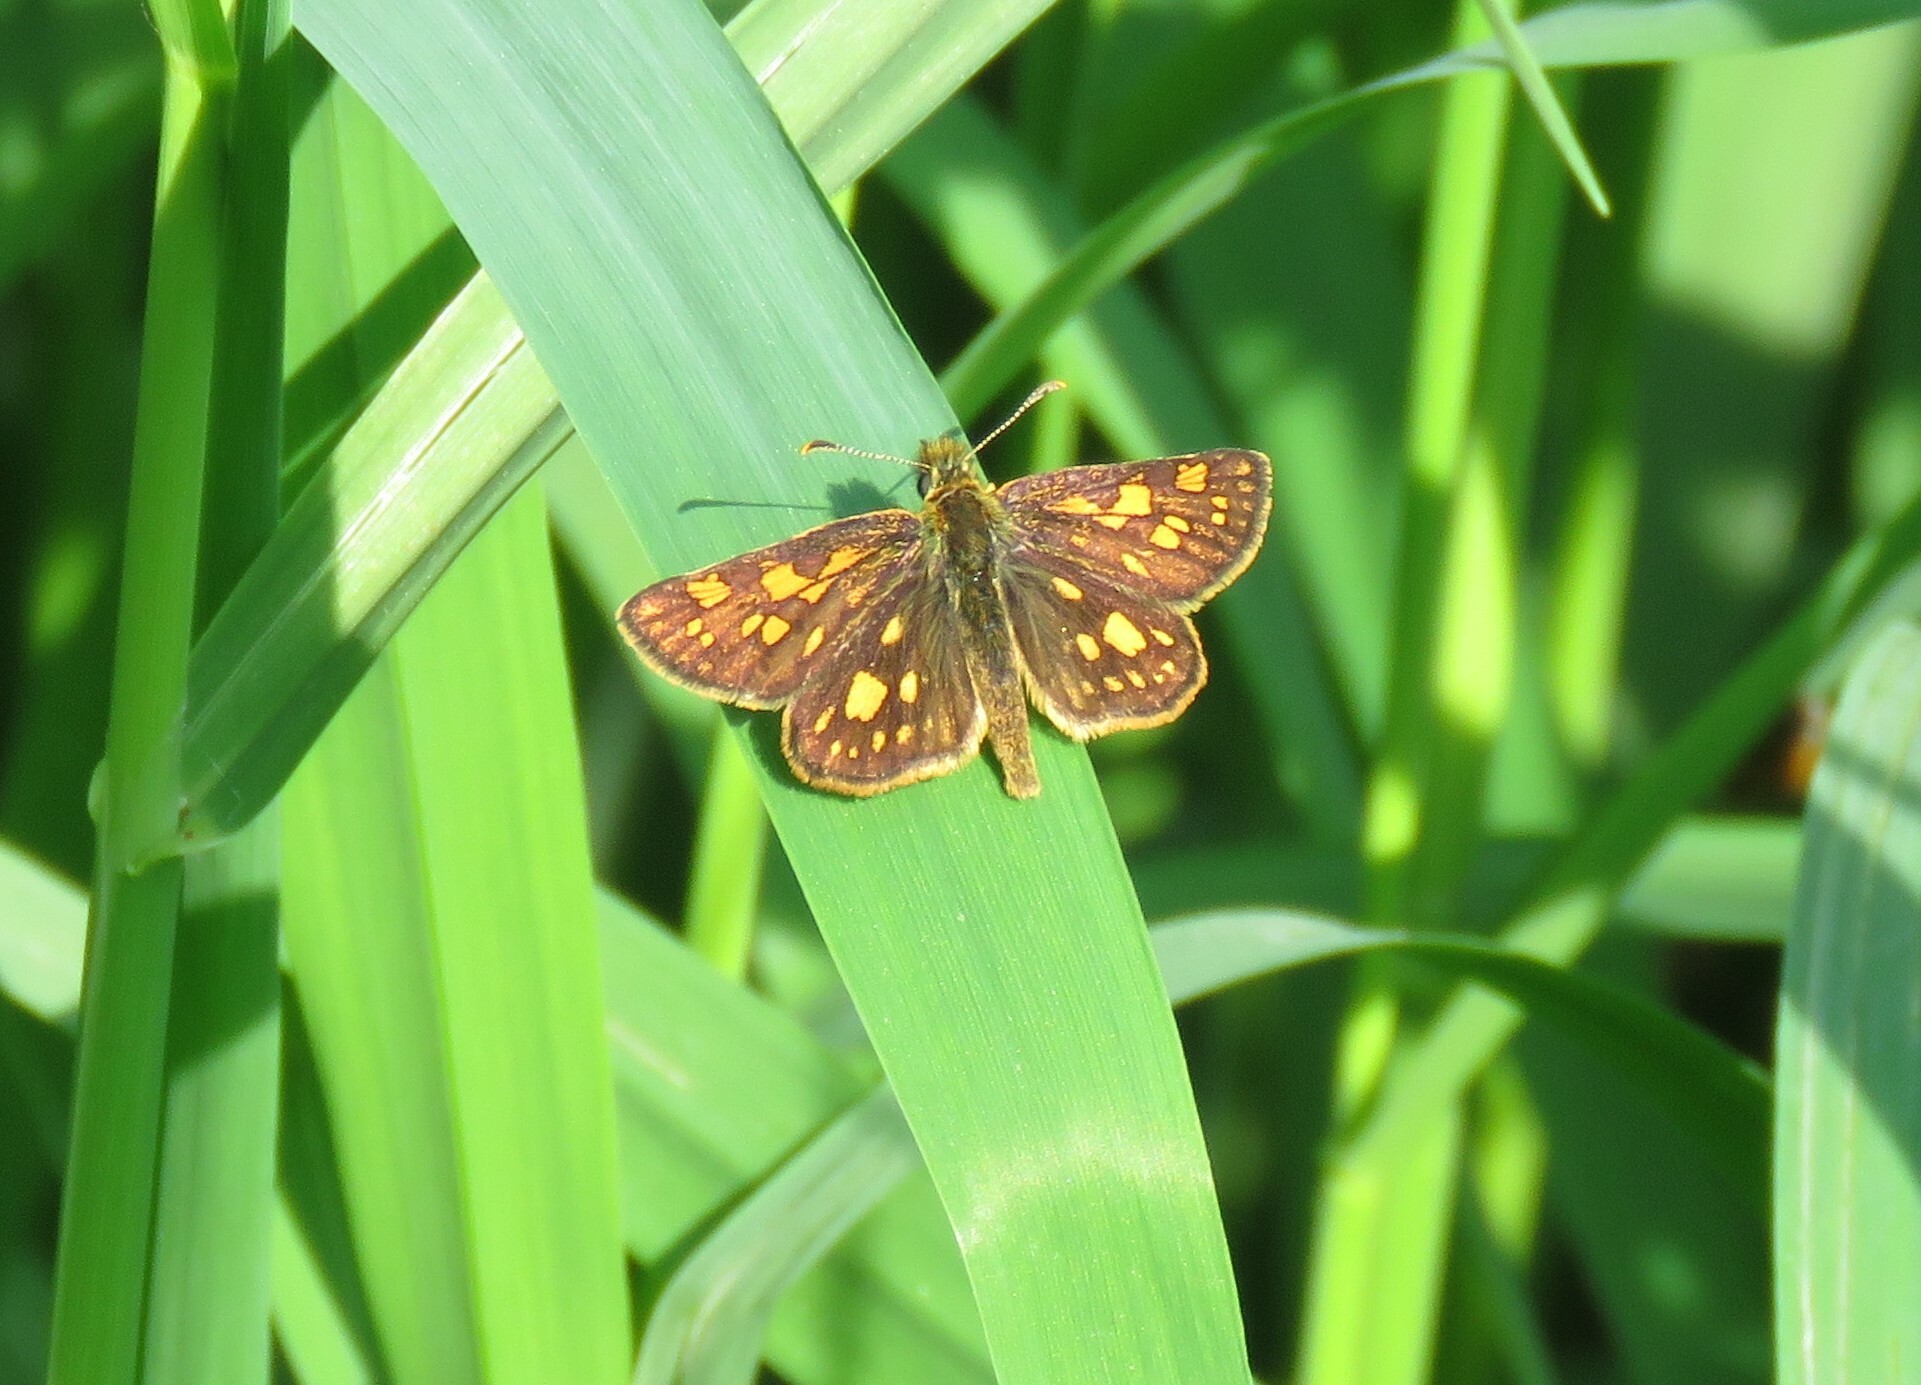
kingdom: Animalia
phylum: Arthropoda
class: Insecta
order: Lepidoptera
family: Hesperiidae
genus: Carterocephalus
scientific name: Carterocephalus mandan
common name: Arctic skipperling
